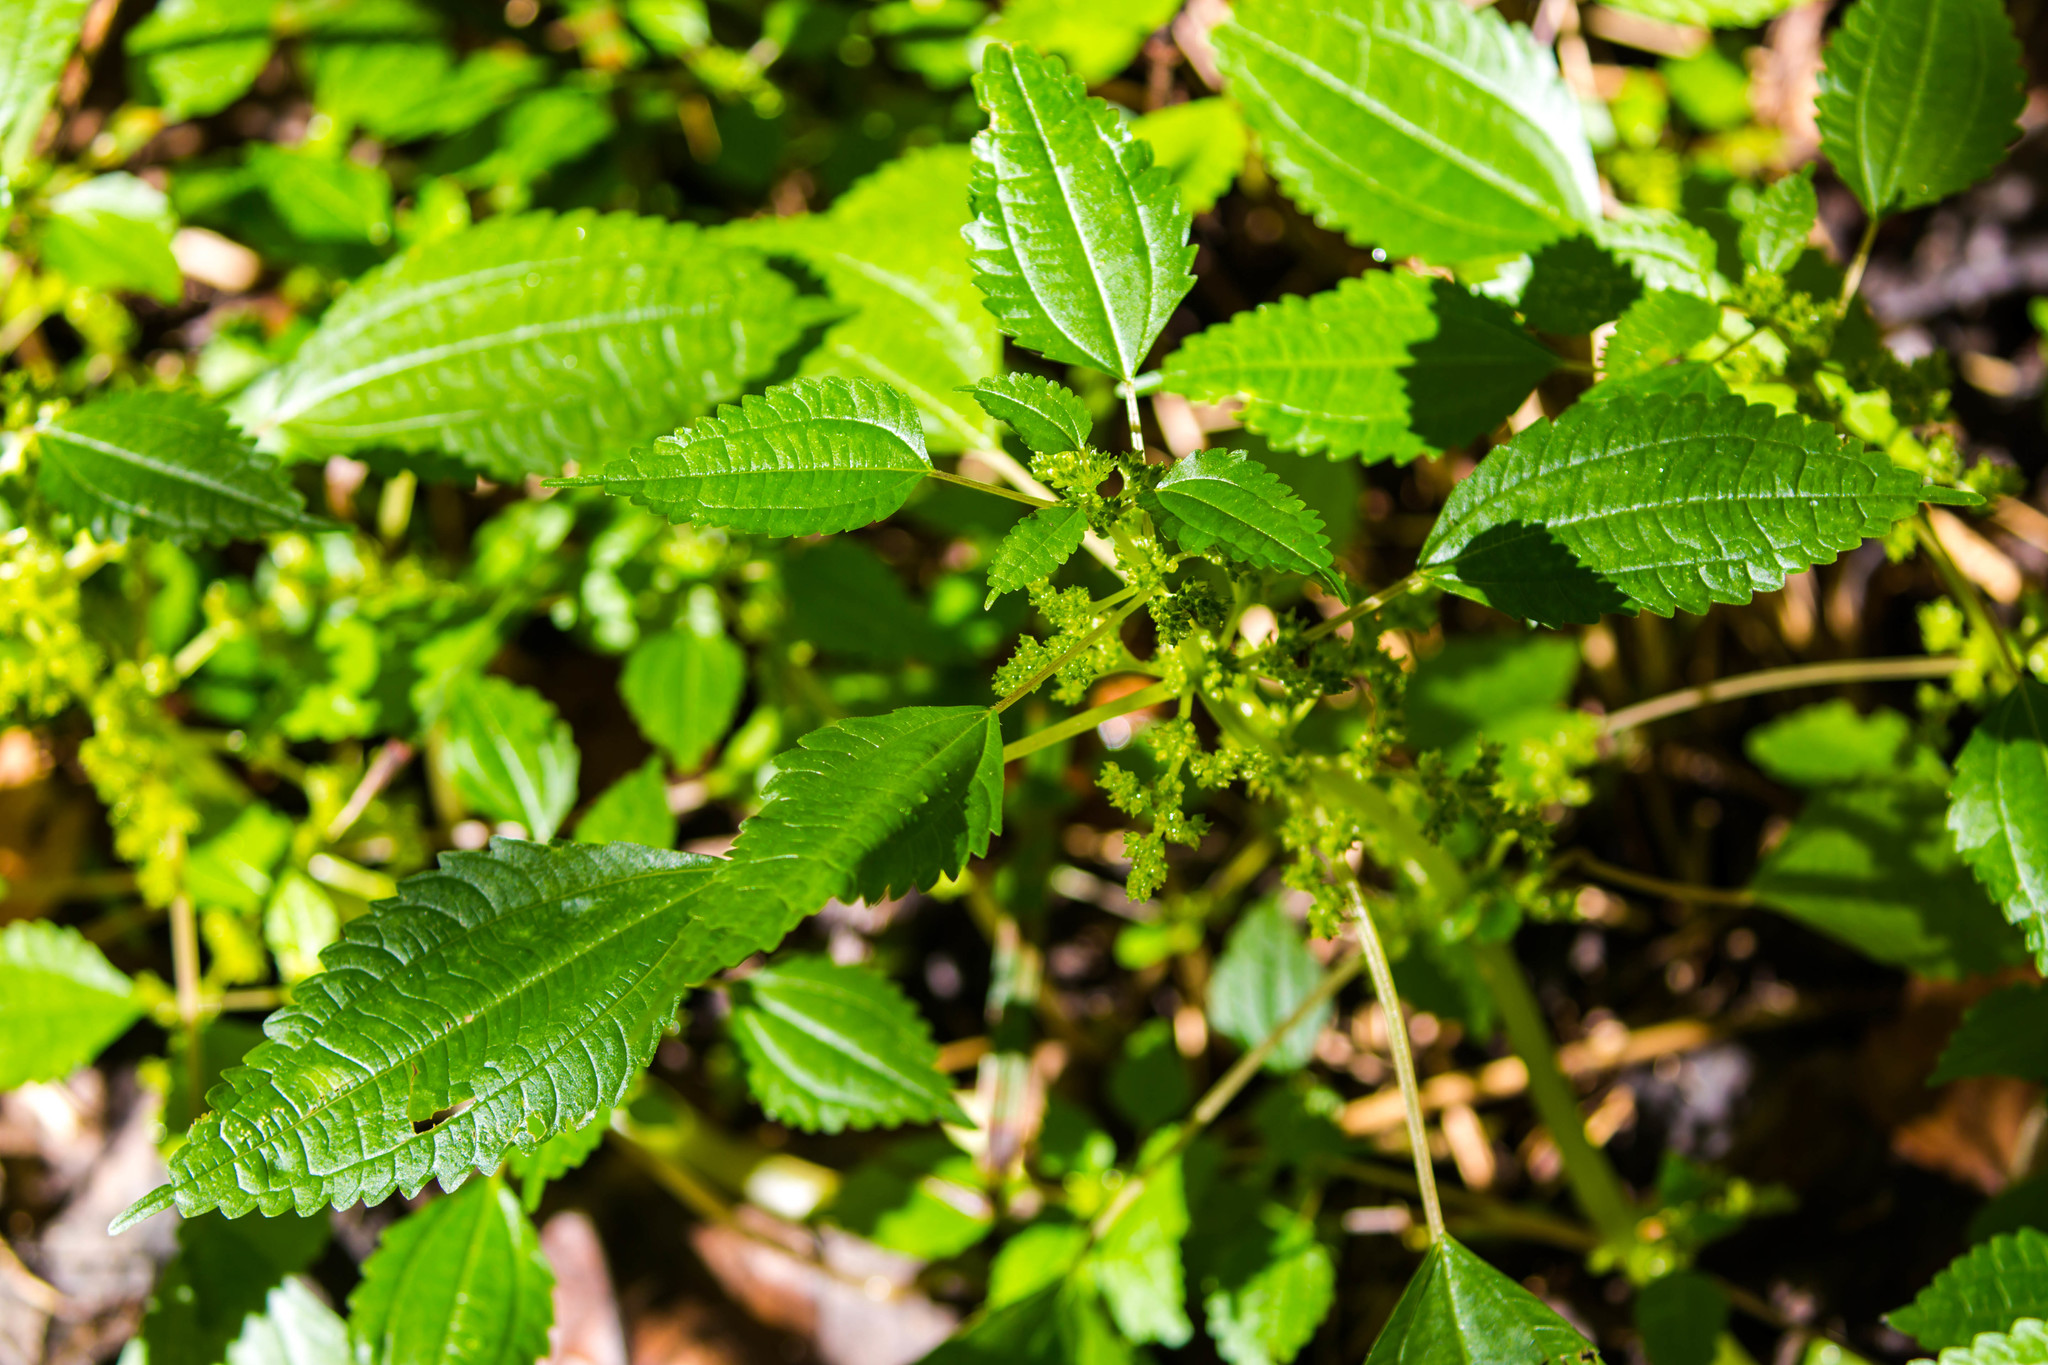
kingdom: Plantae
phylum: Tracheophyta
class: Magnoliopsida
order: Rosales
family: Urticaceae
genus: Pilea
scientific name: Pilea pumila
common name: Clearweed
